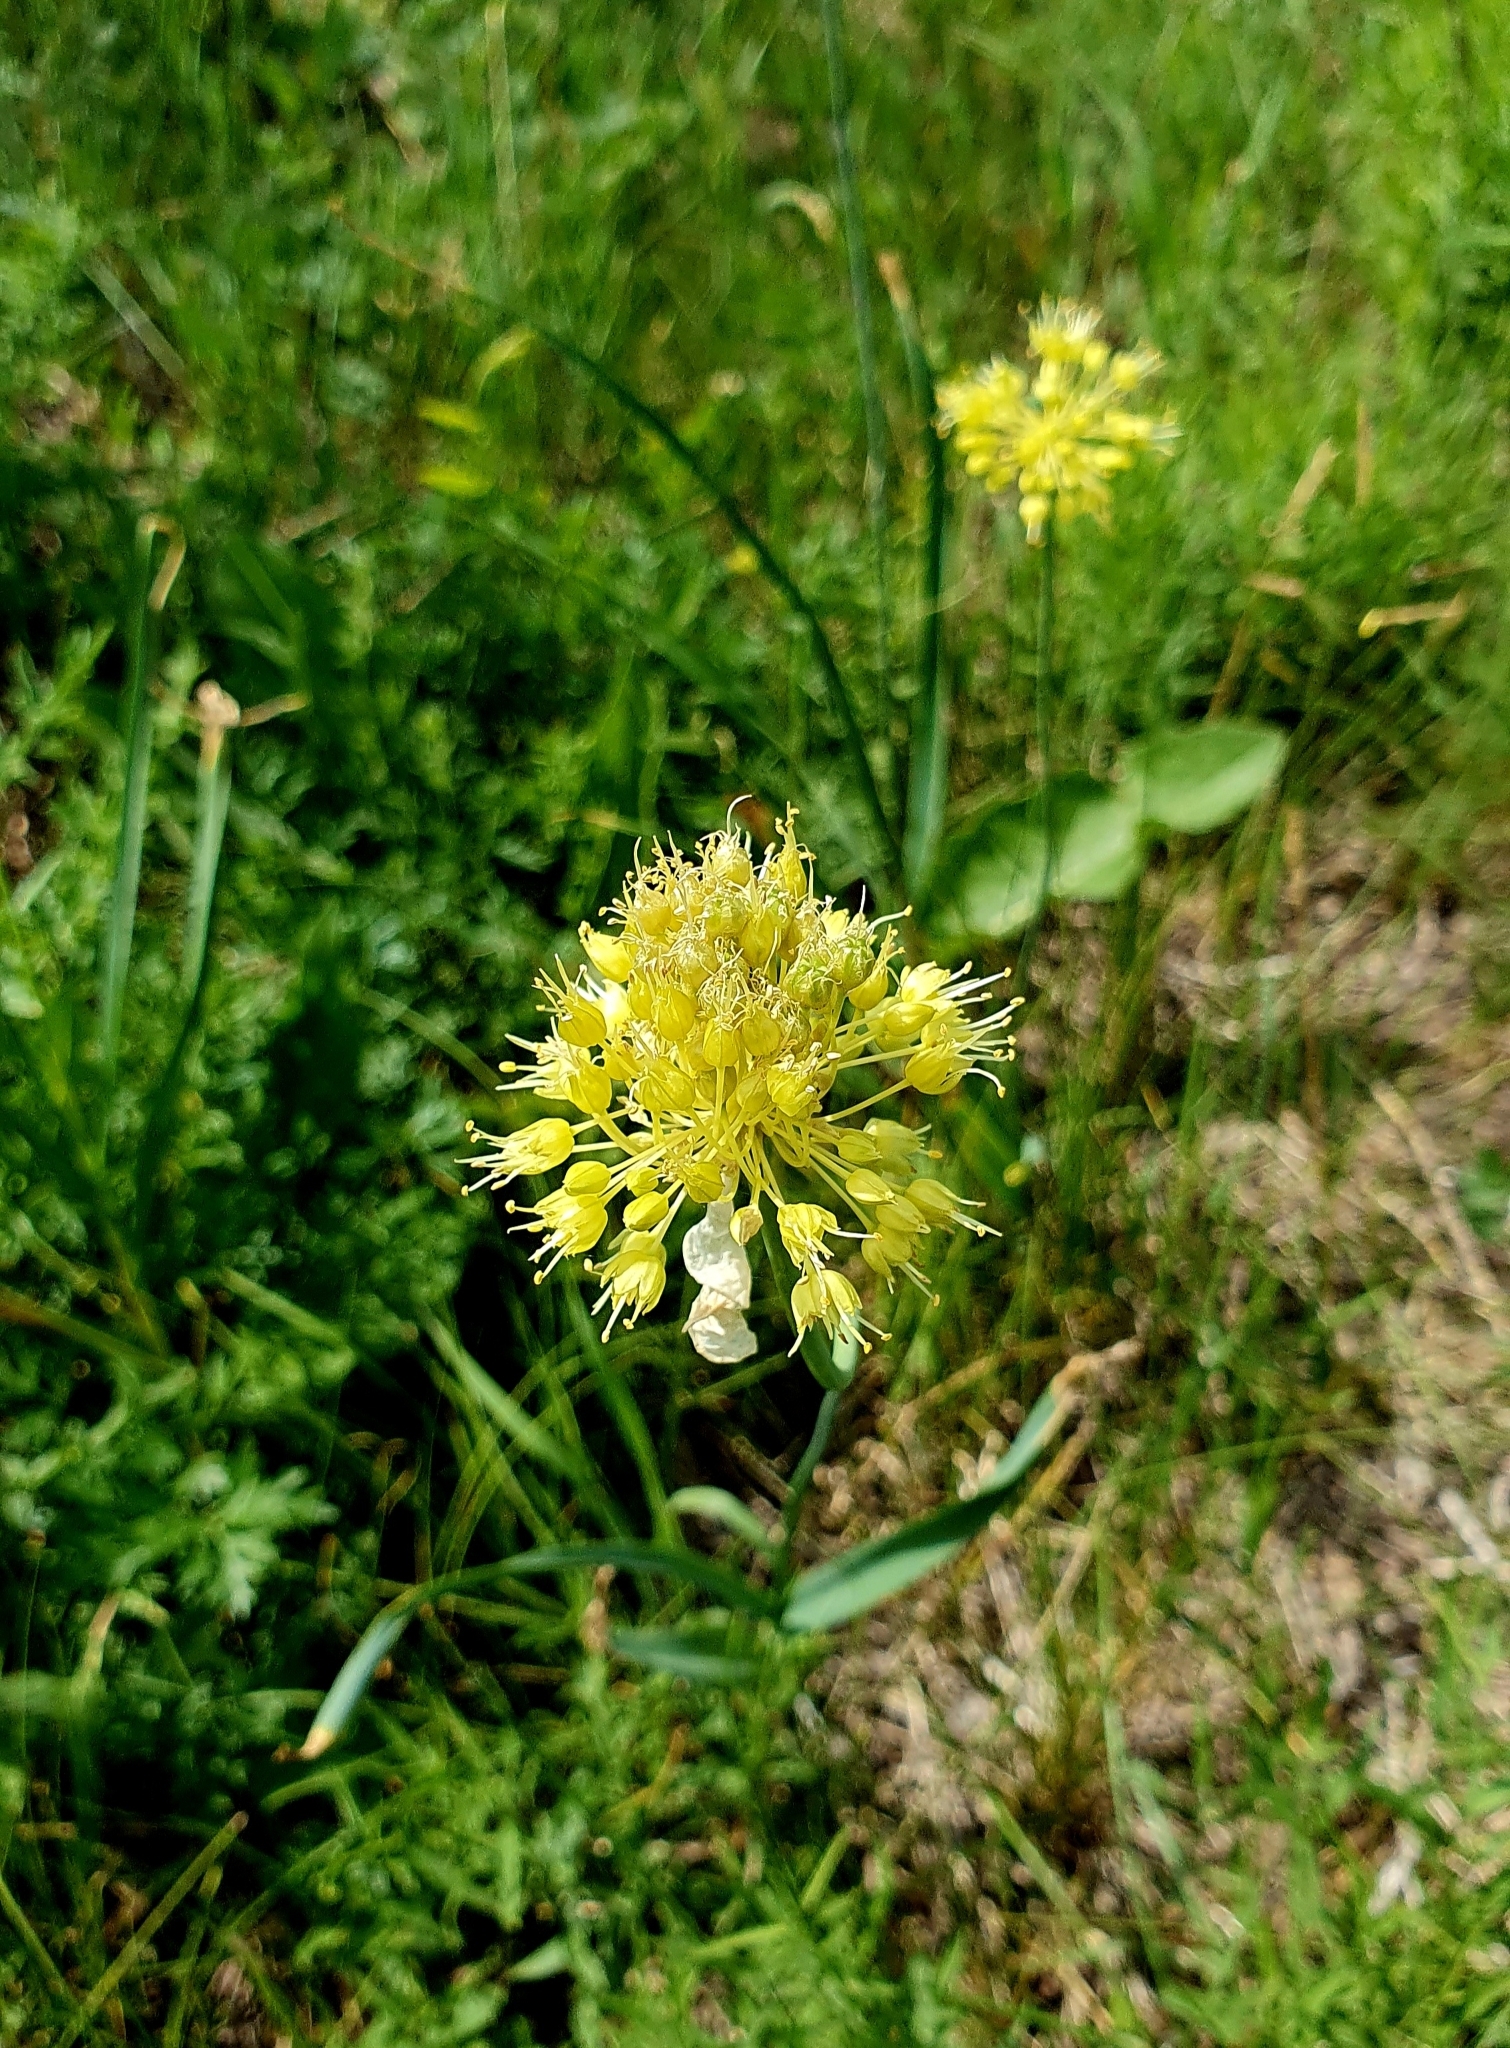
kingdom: Plantae
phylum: Tracheophyta
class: Liliopsida
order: Asparagales
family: Amaryllidaceae
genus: Allium
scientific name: Allium obliquum
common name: Oblique onion
